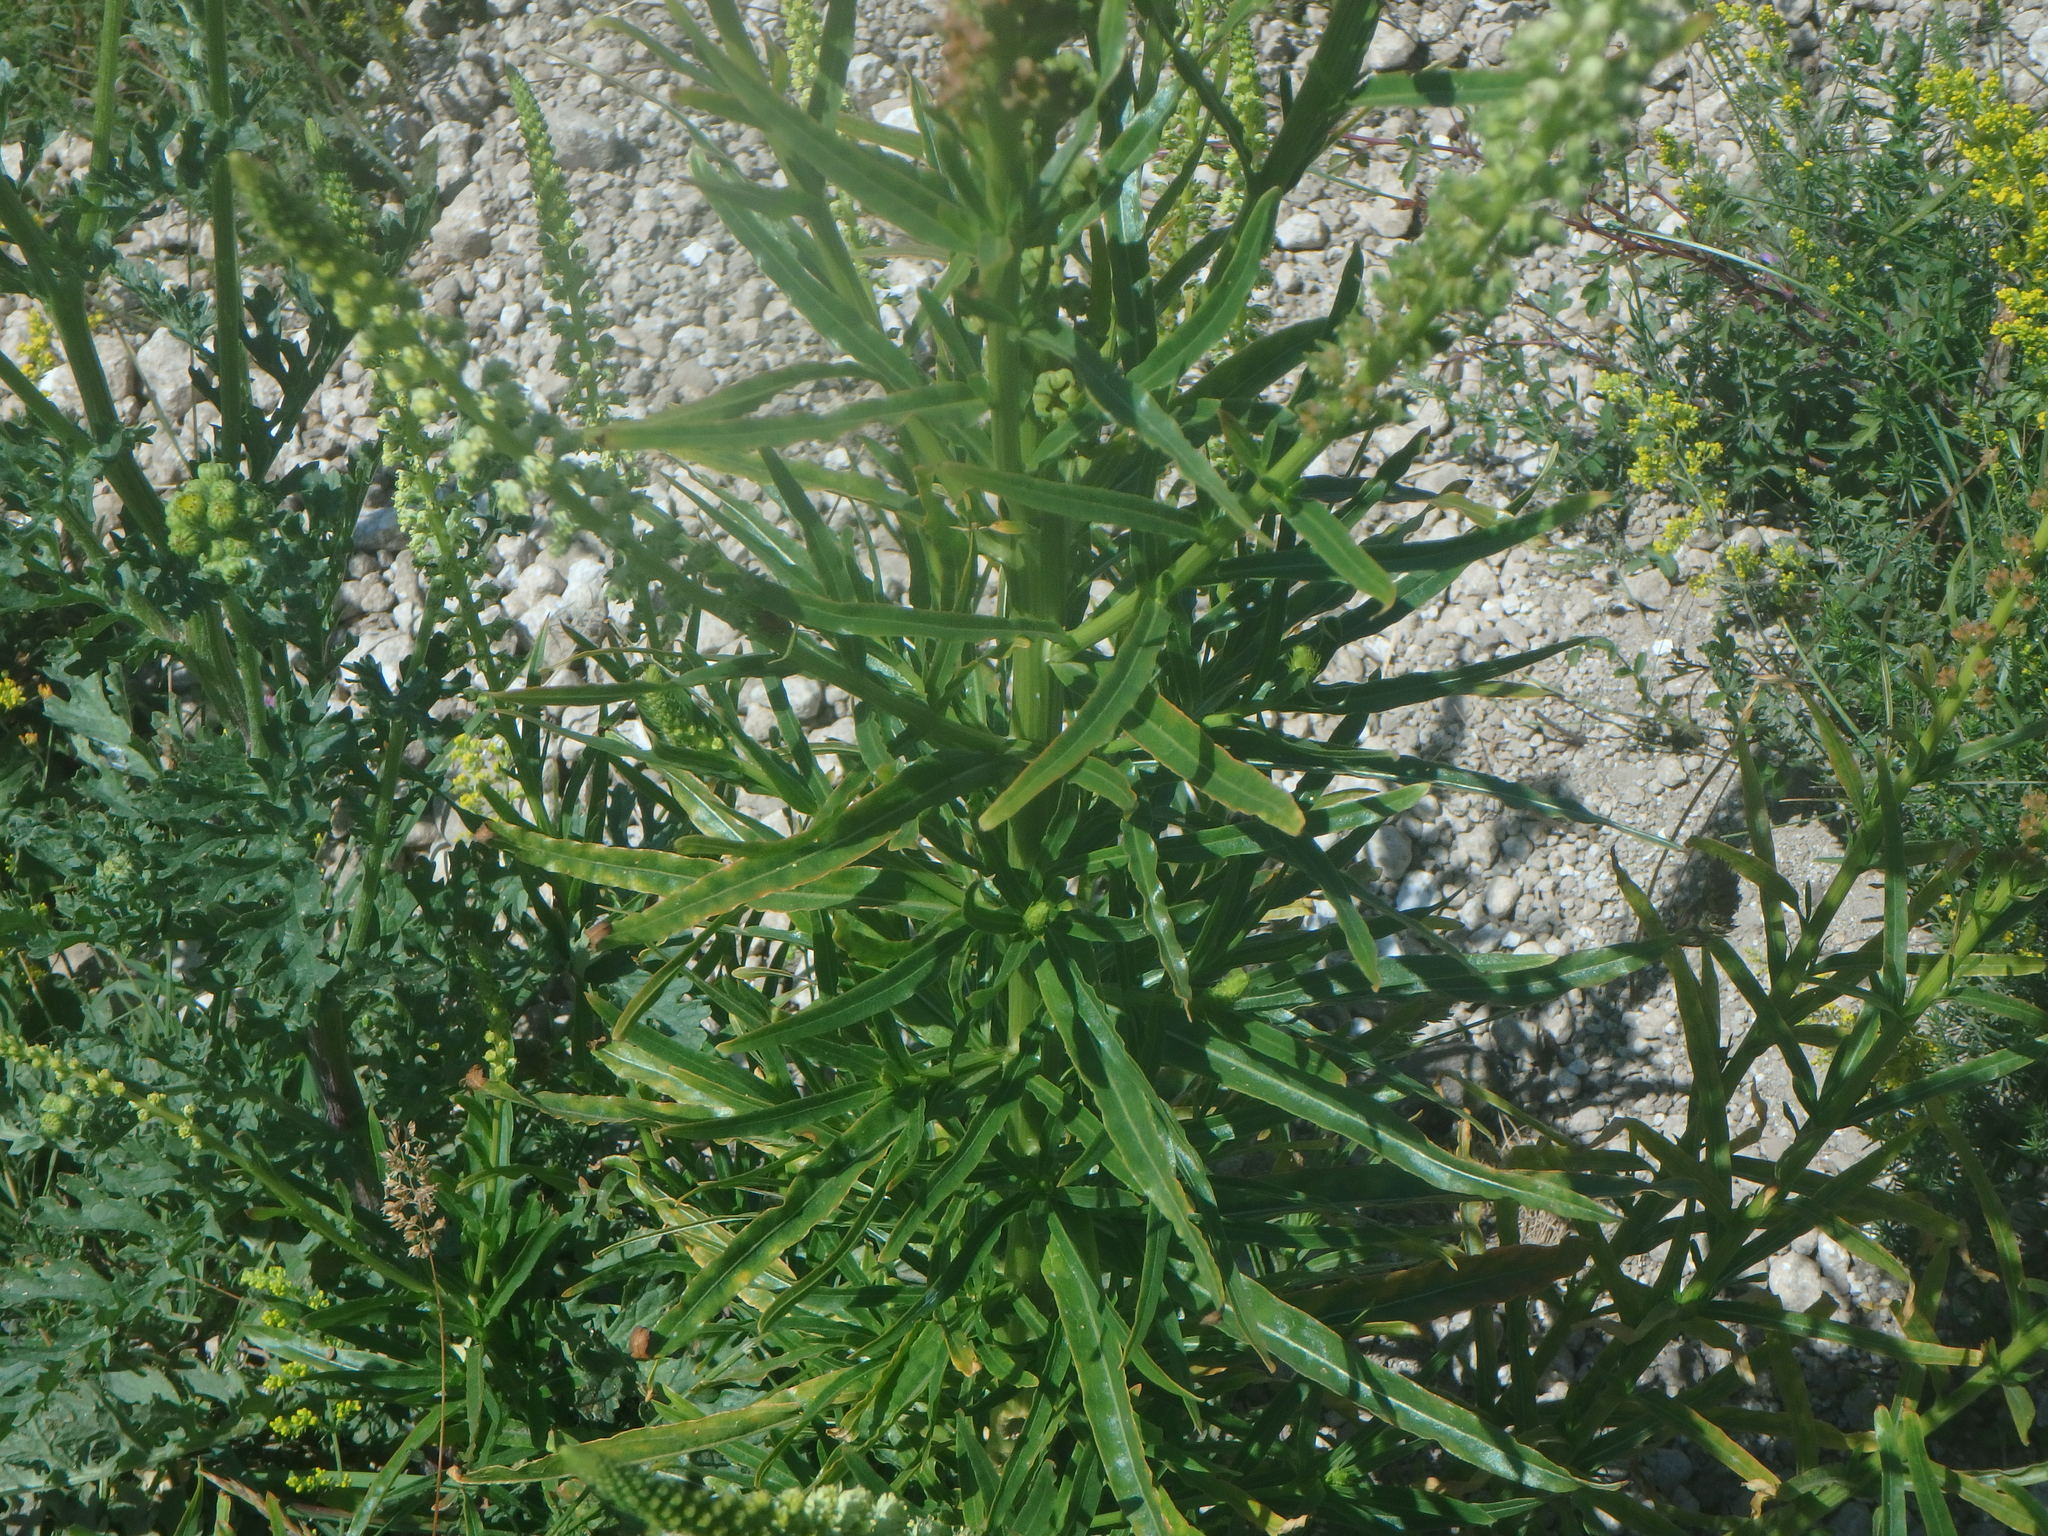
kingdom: Plantae
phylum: Tracheophyta
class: Magnoliopsida
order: Brassicales
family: Resedaceae
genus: Reseda
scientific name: Reseda luteola
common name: Weld
